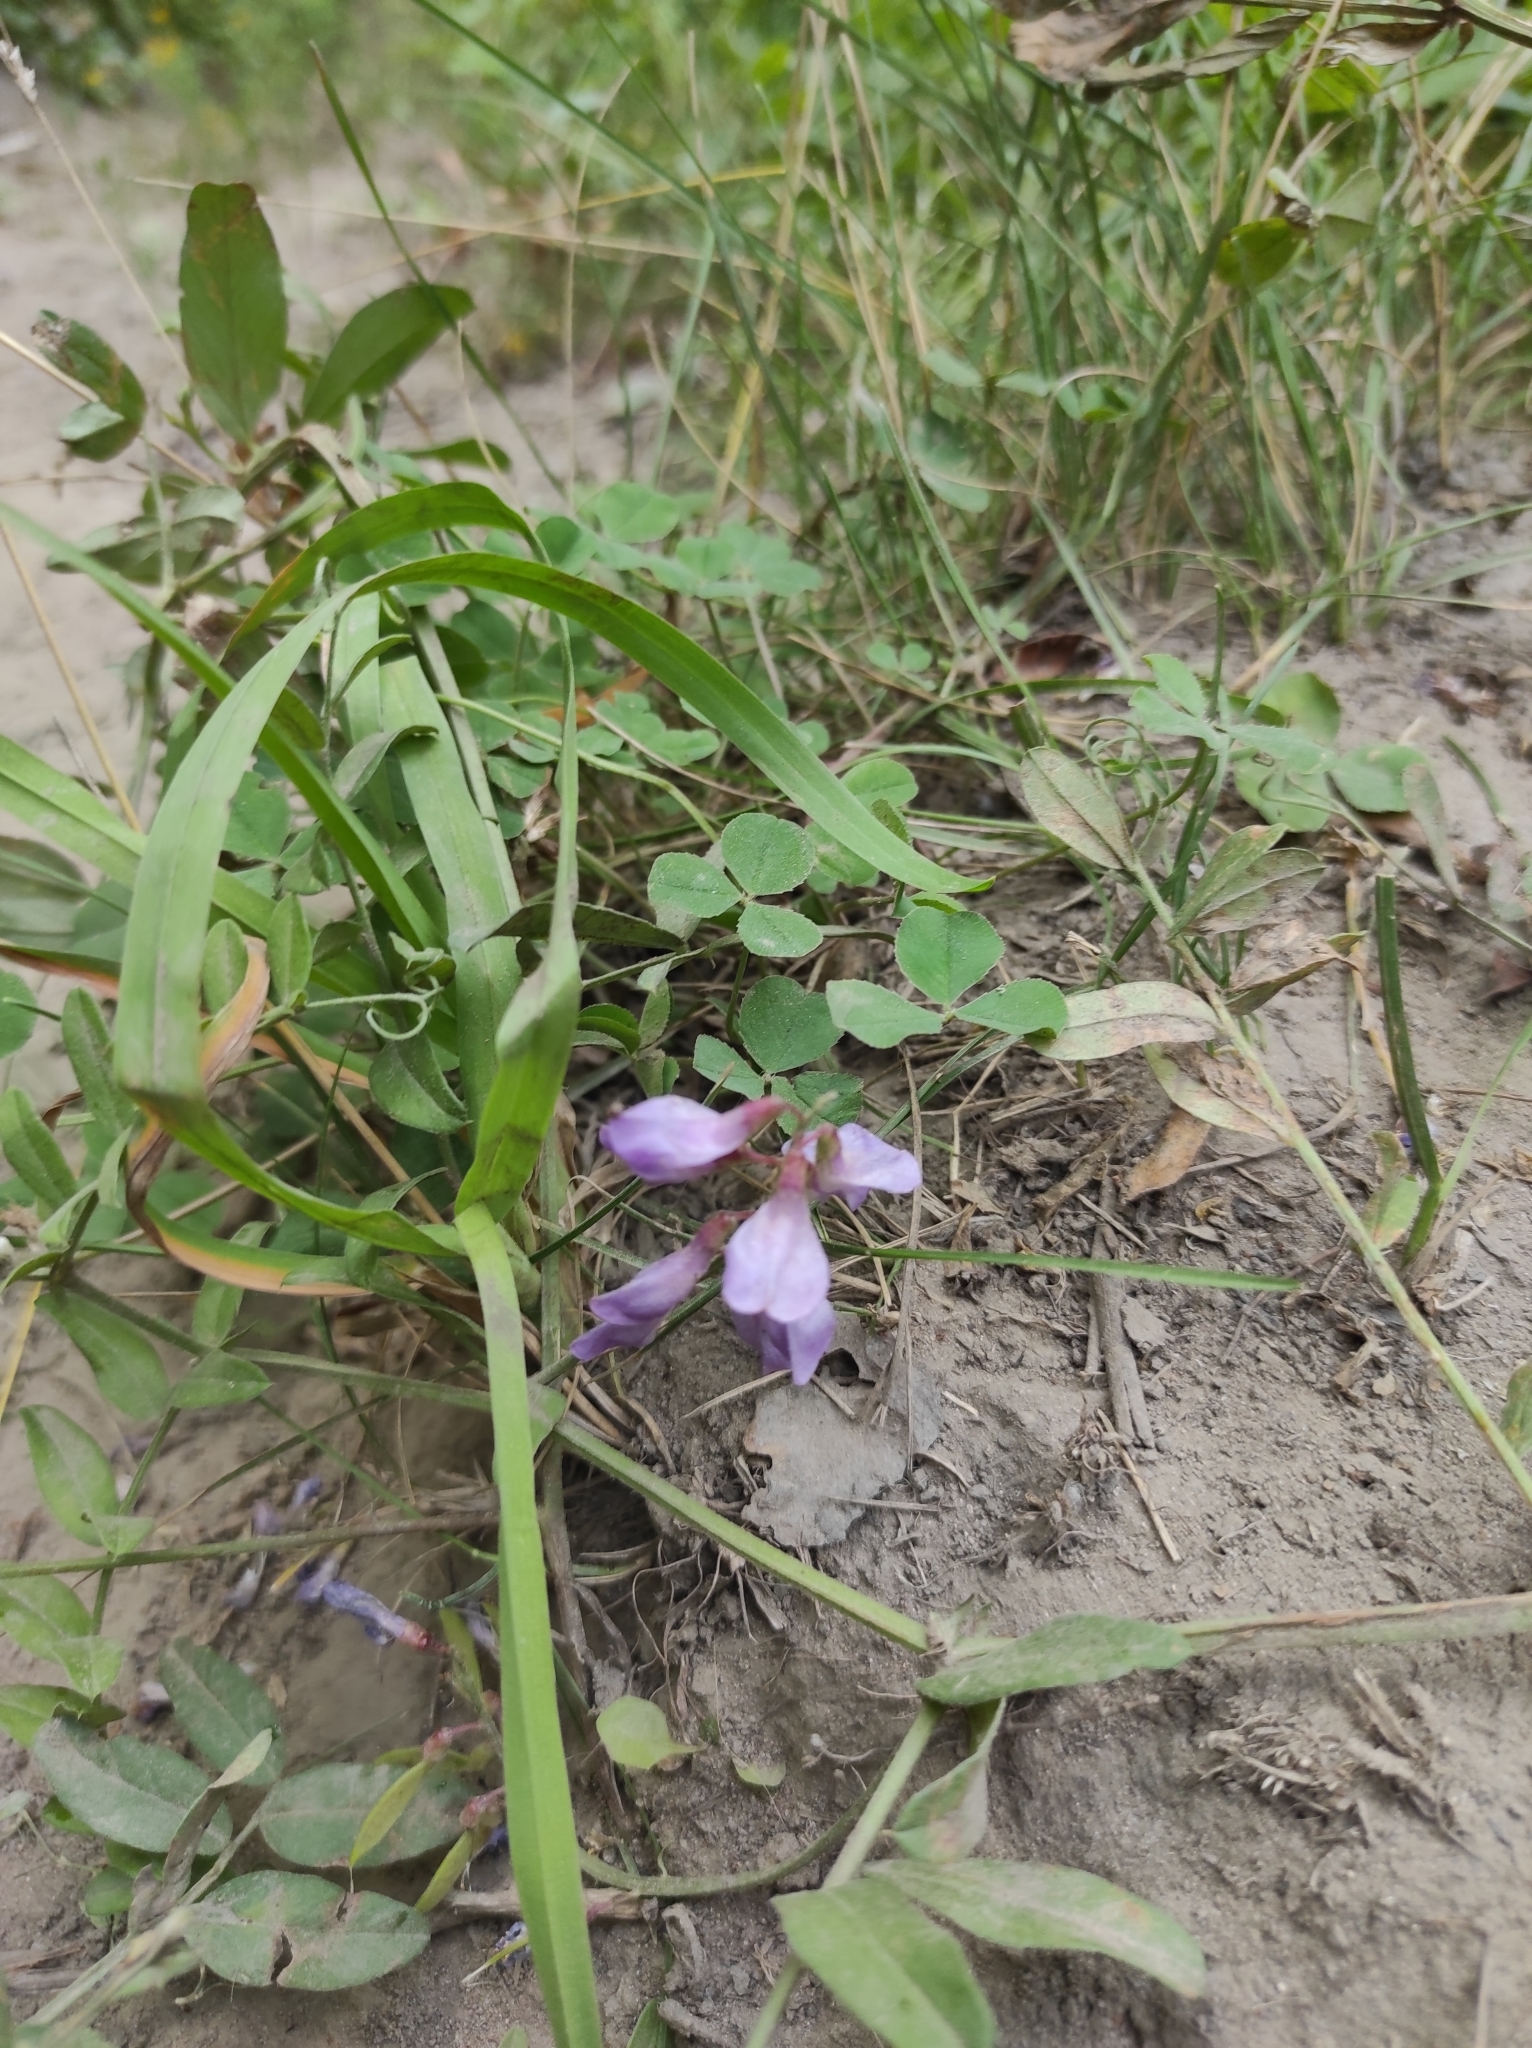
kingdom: Plantae
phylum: Tracheophyta
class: Magnoliopsida
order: Fabales
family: Fabaceae
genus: Vicia
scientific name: Vicia amoena
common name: Cheder ebs
